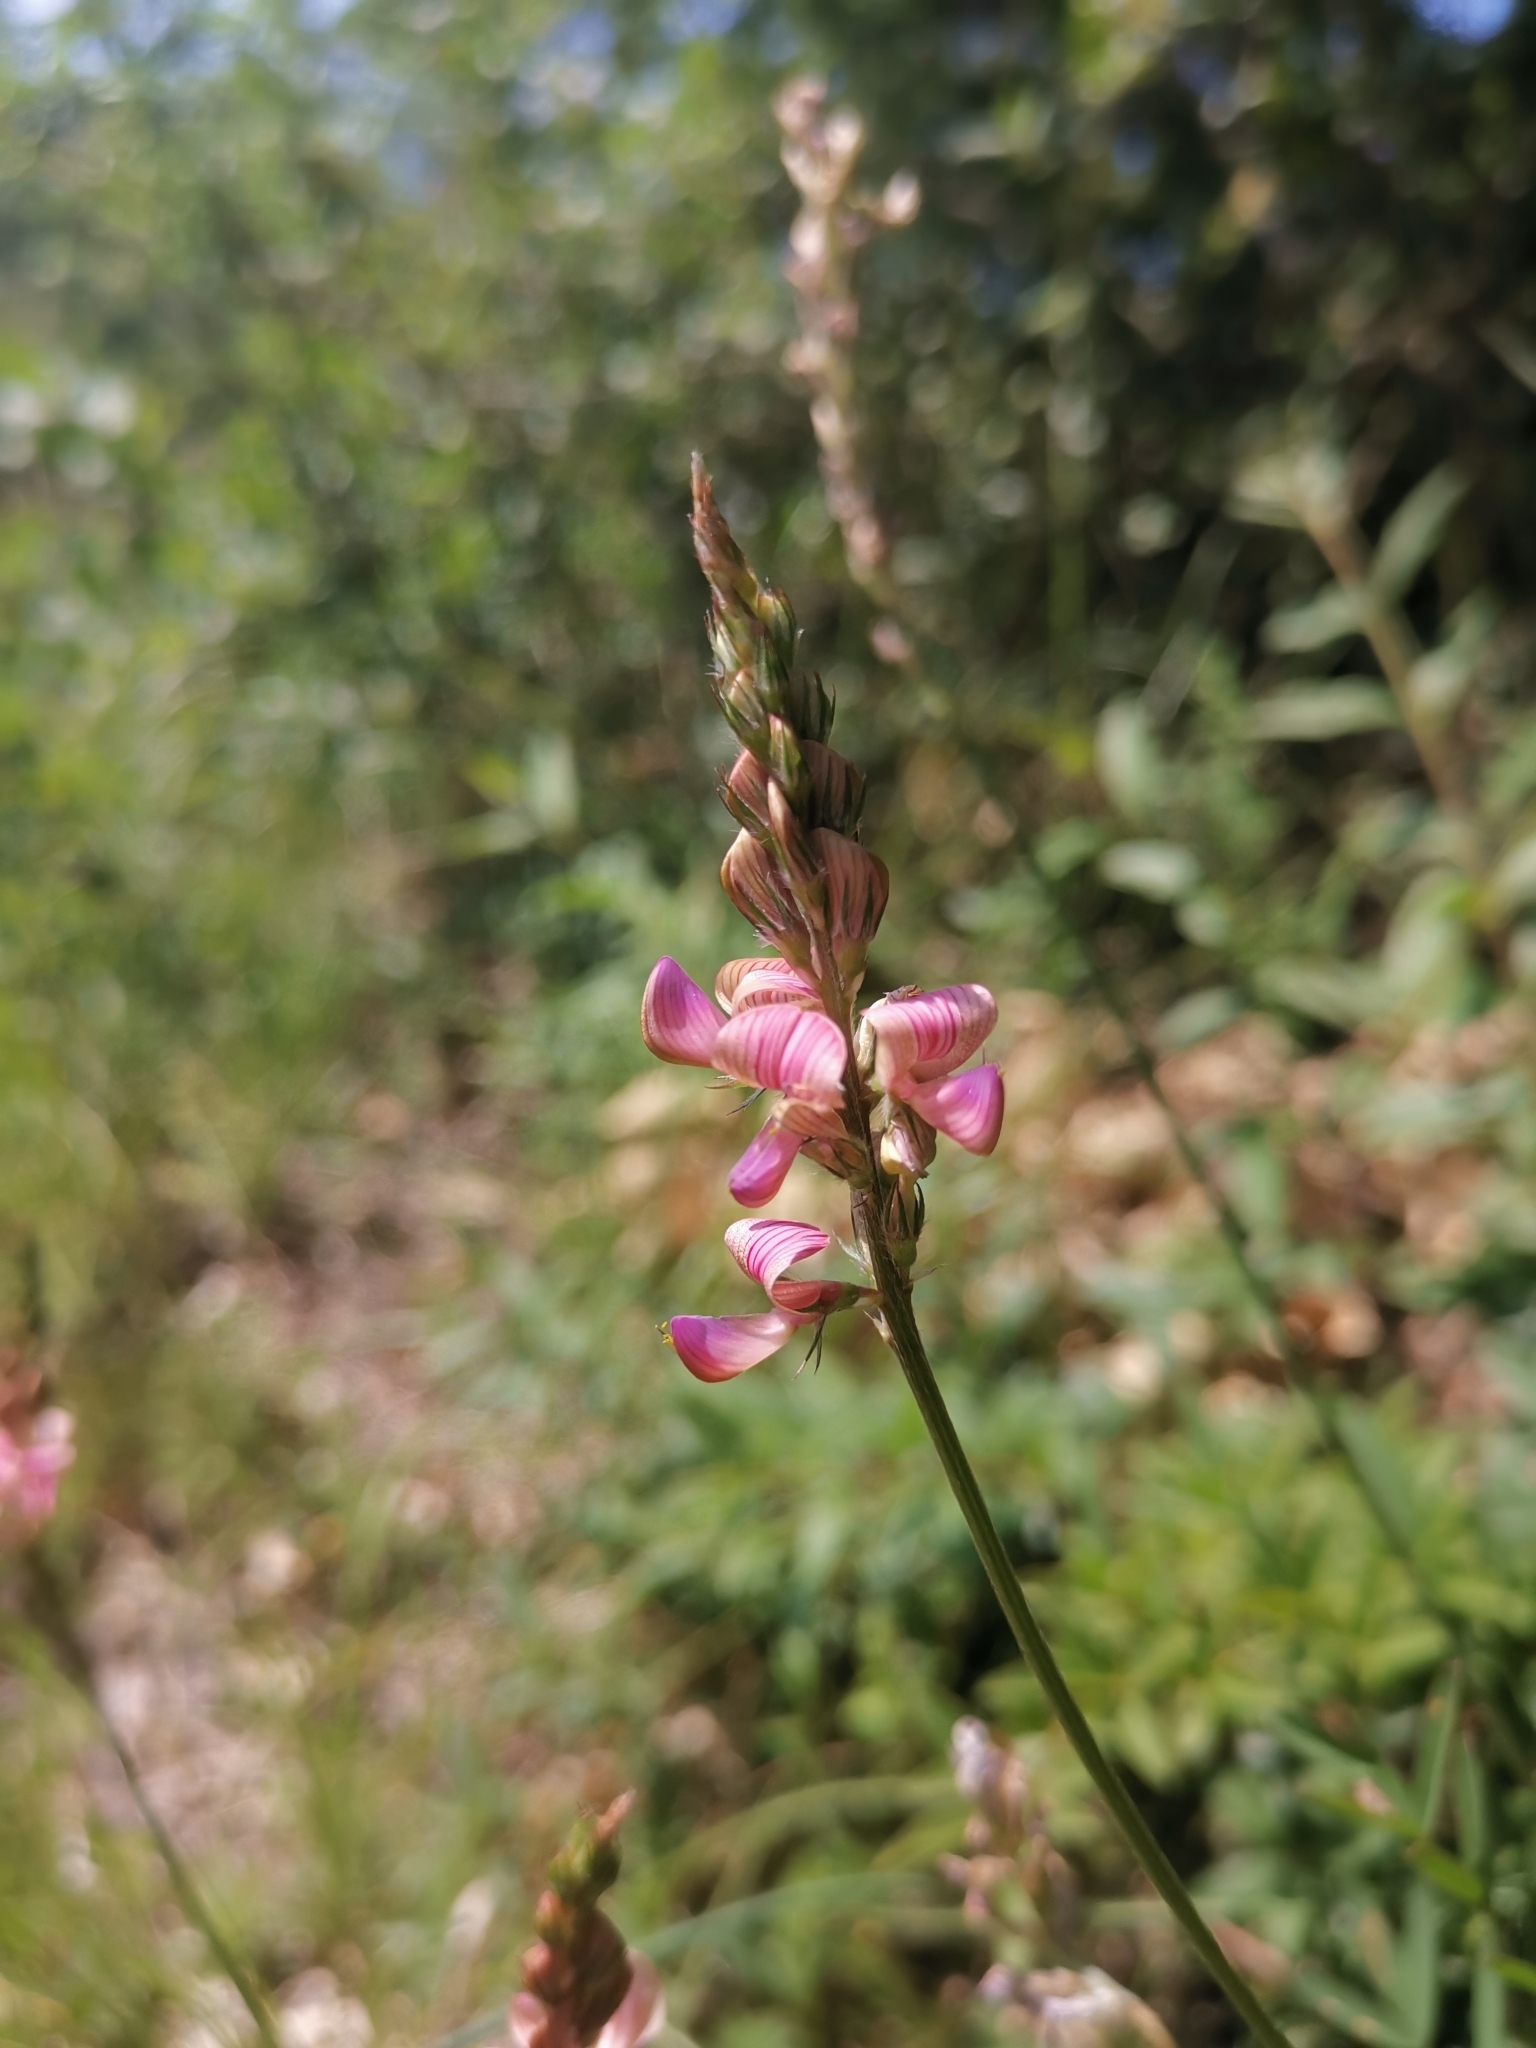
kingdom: Plantae
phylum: Tracheophyta
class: Magnoliopsida
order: Fabales
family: Fabaceae
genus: Onobrychis
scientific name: Onobrychis viciifolia
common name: Sainfoin
